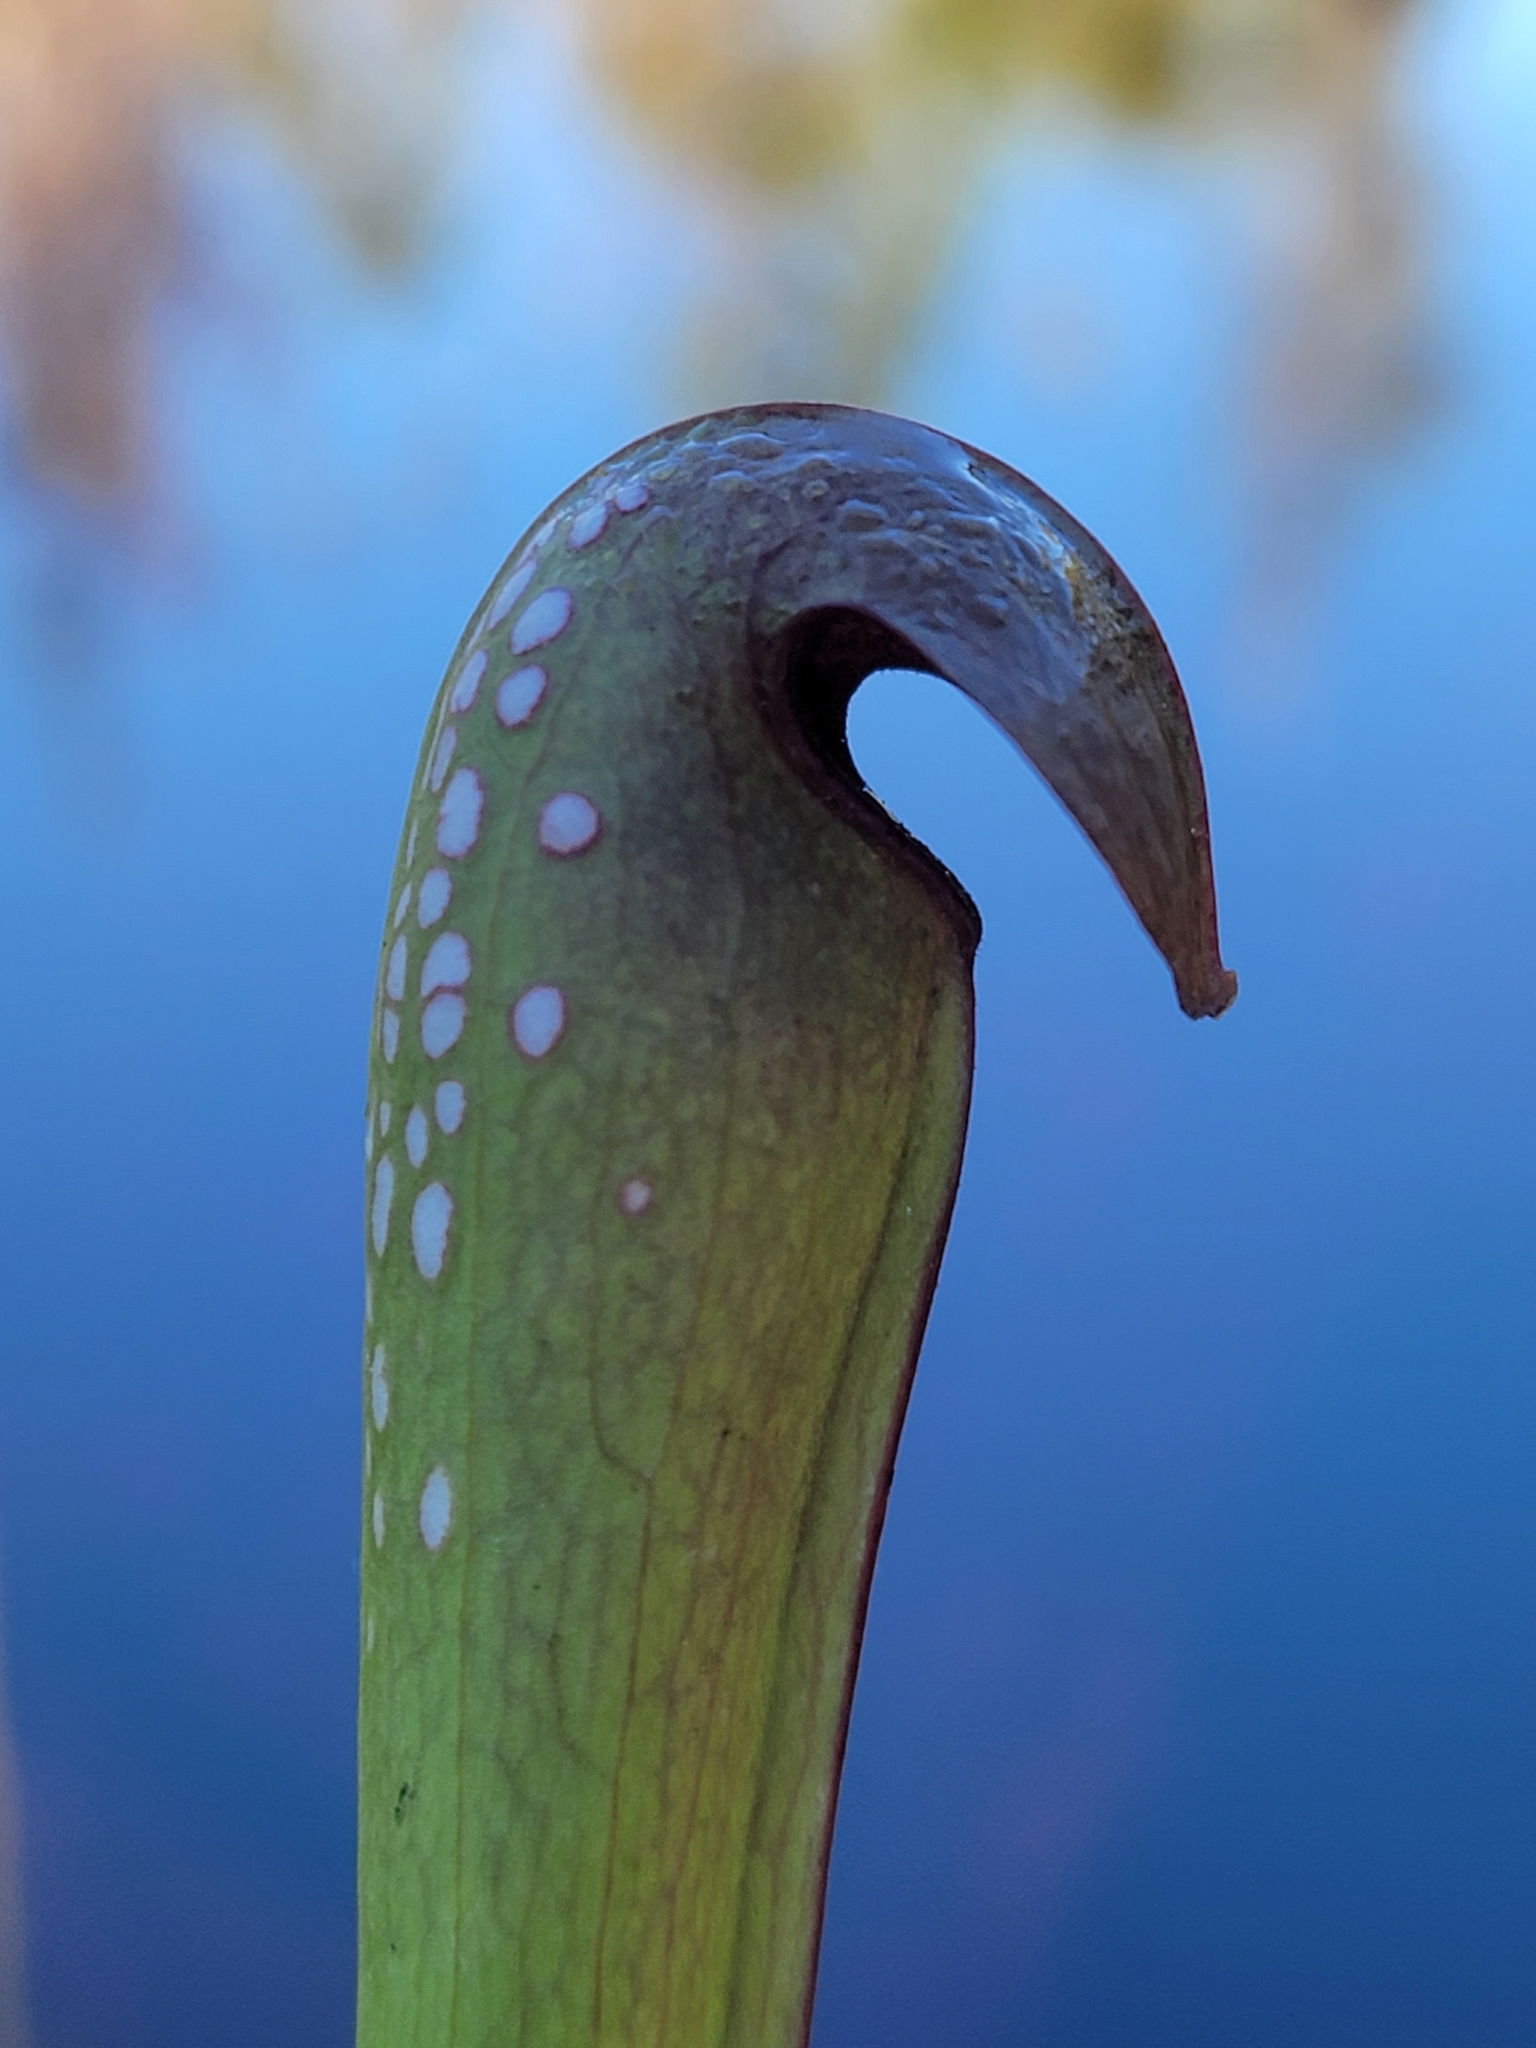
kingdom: Plantae
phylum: Tracheophyta
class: Magnoliopsida
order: Ericales
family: Sarraceniaceae
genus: Sarracenia
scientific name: Sarracenia minor
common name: Rainhat-trumpet
